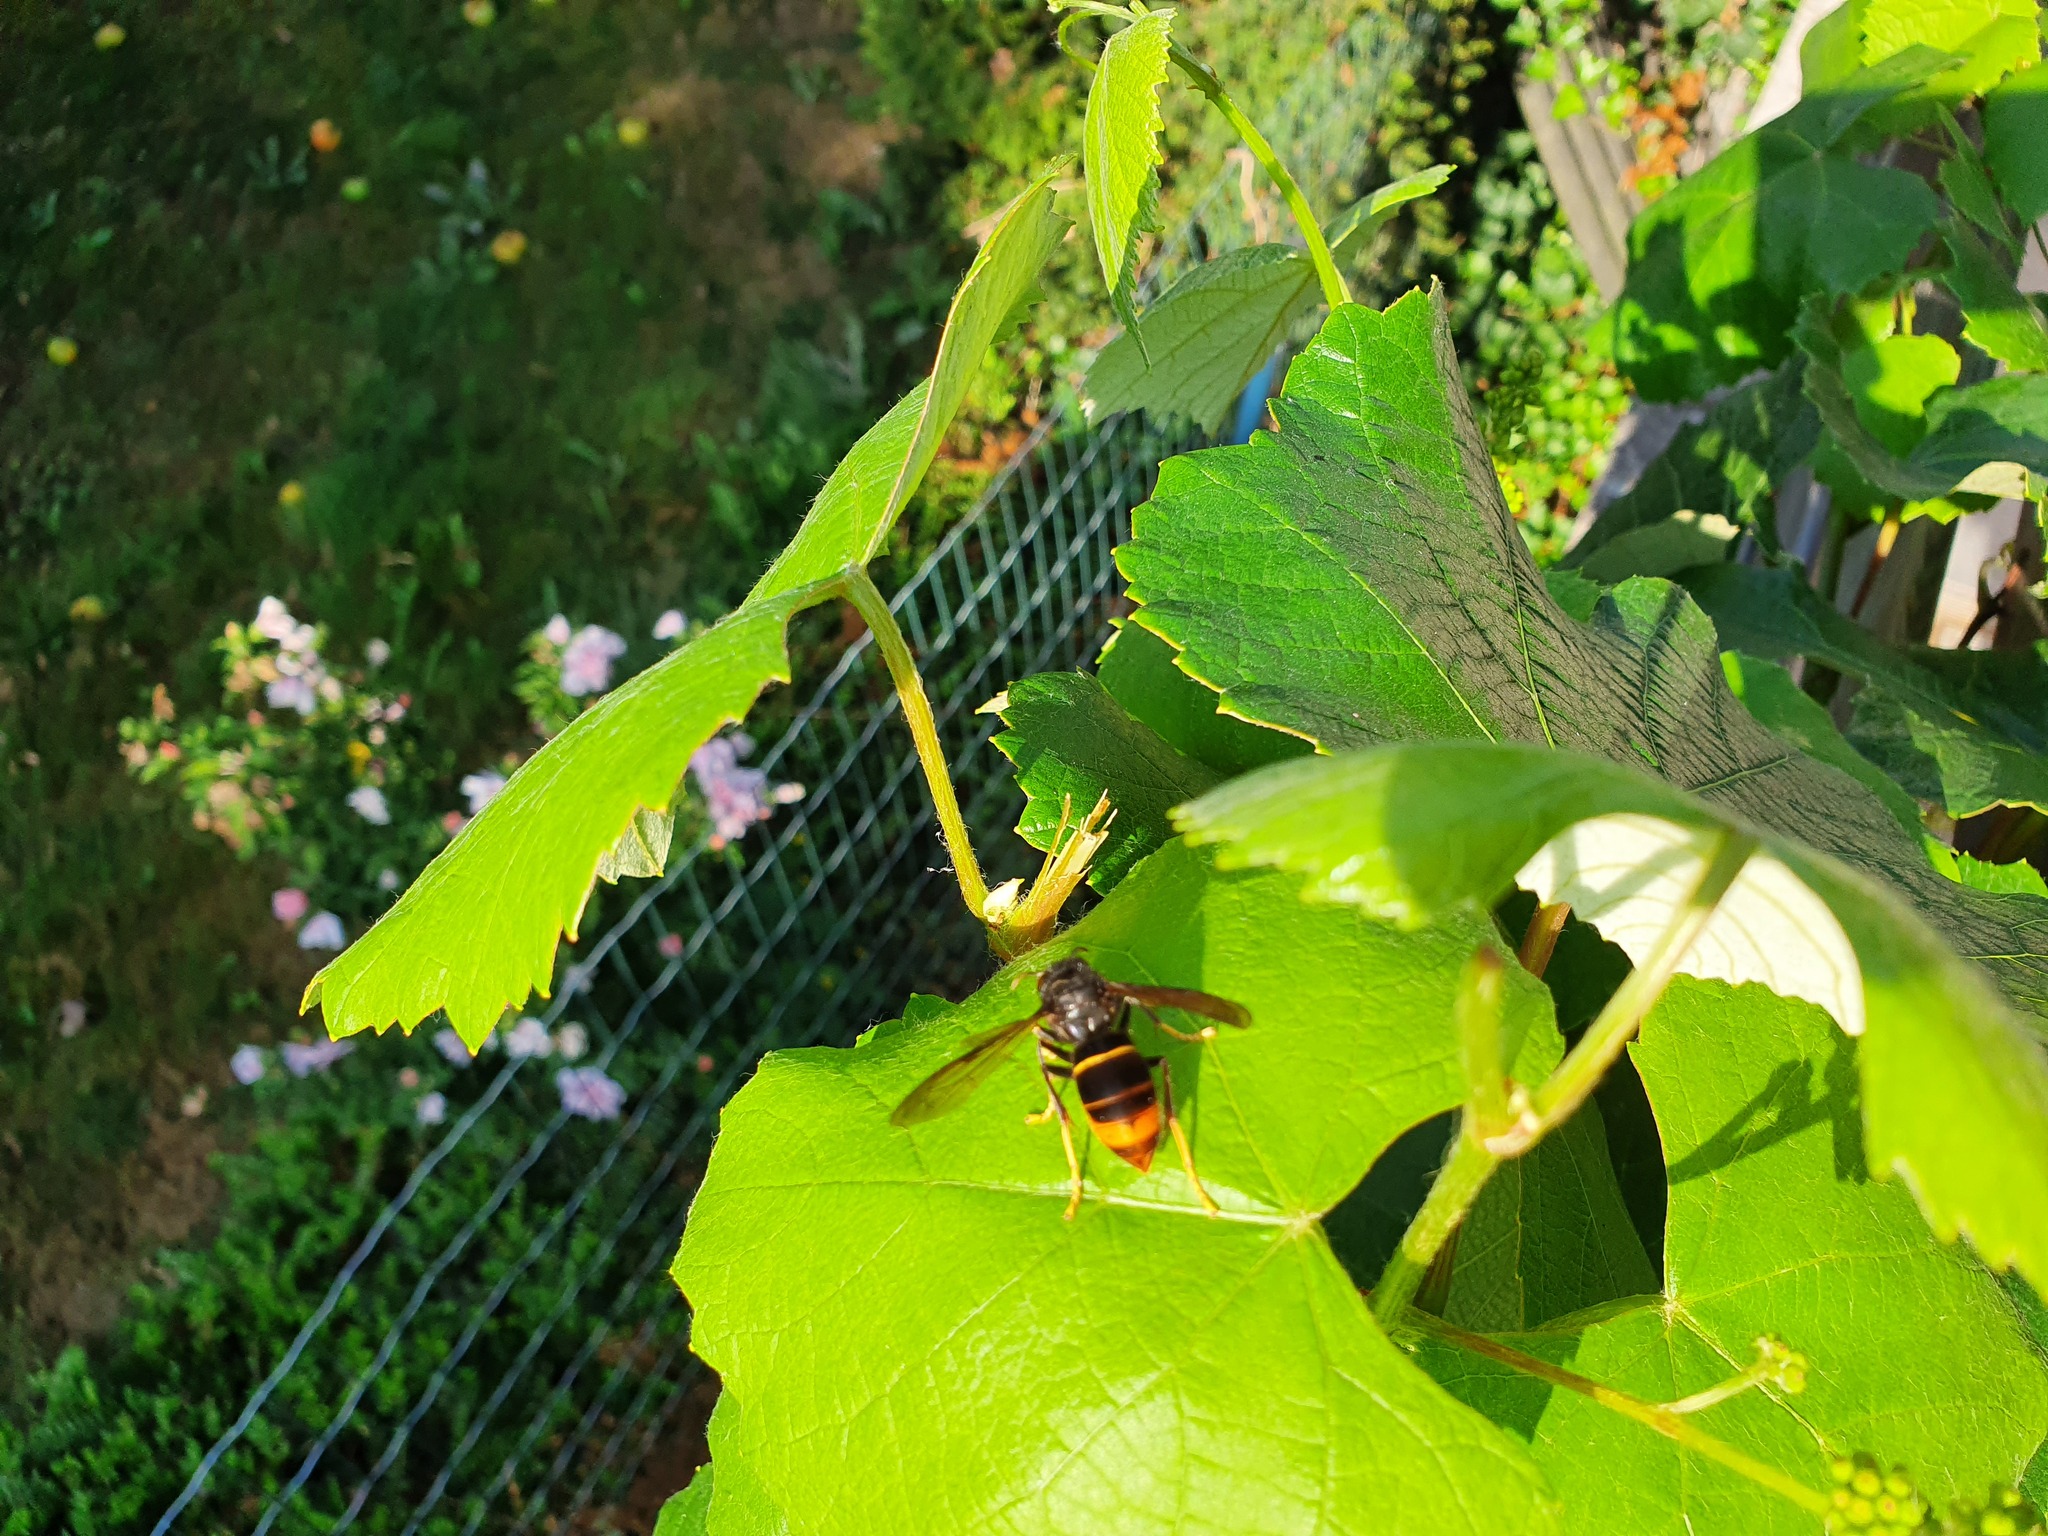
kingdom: Animalia
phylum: Arthropoda
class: Insecta
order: Hymenoptera
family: Vespidae
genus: Vespa
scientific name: Vespa velutina
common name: Asian hornet
